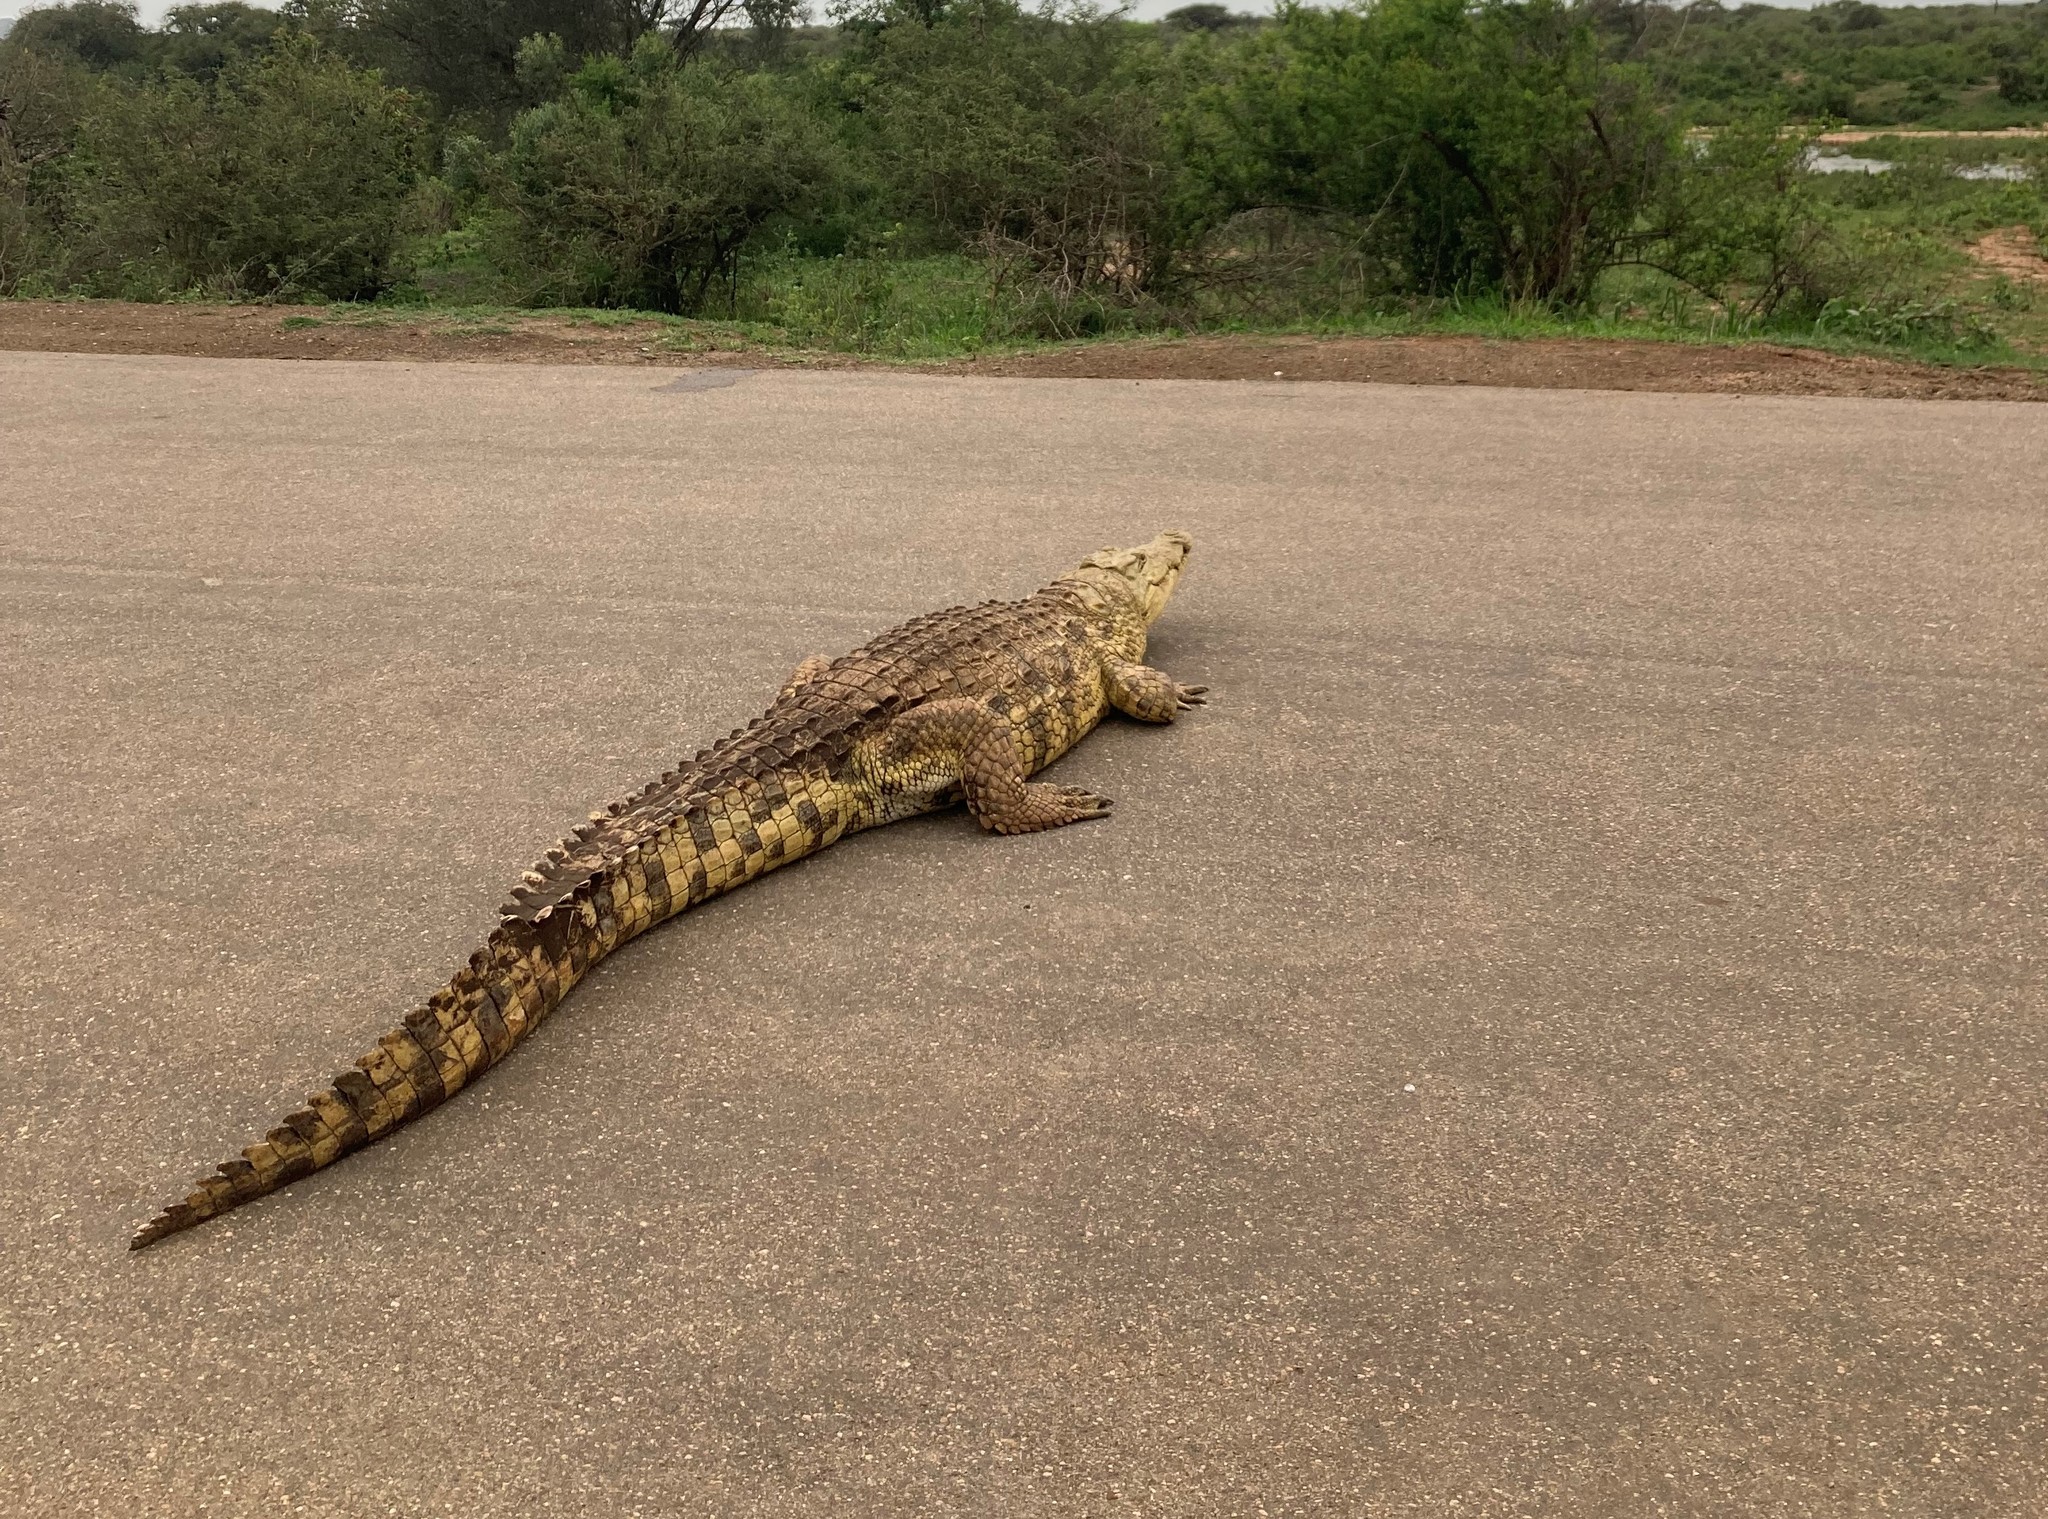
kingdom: Animalia
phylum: Chordata
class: Crocodylia
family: Crocodylidae
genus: Crocodylus
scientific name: Crocodylus niloticus
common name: Nile crocodile
